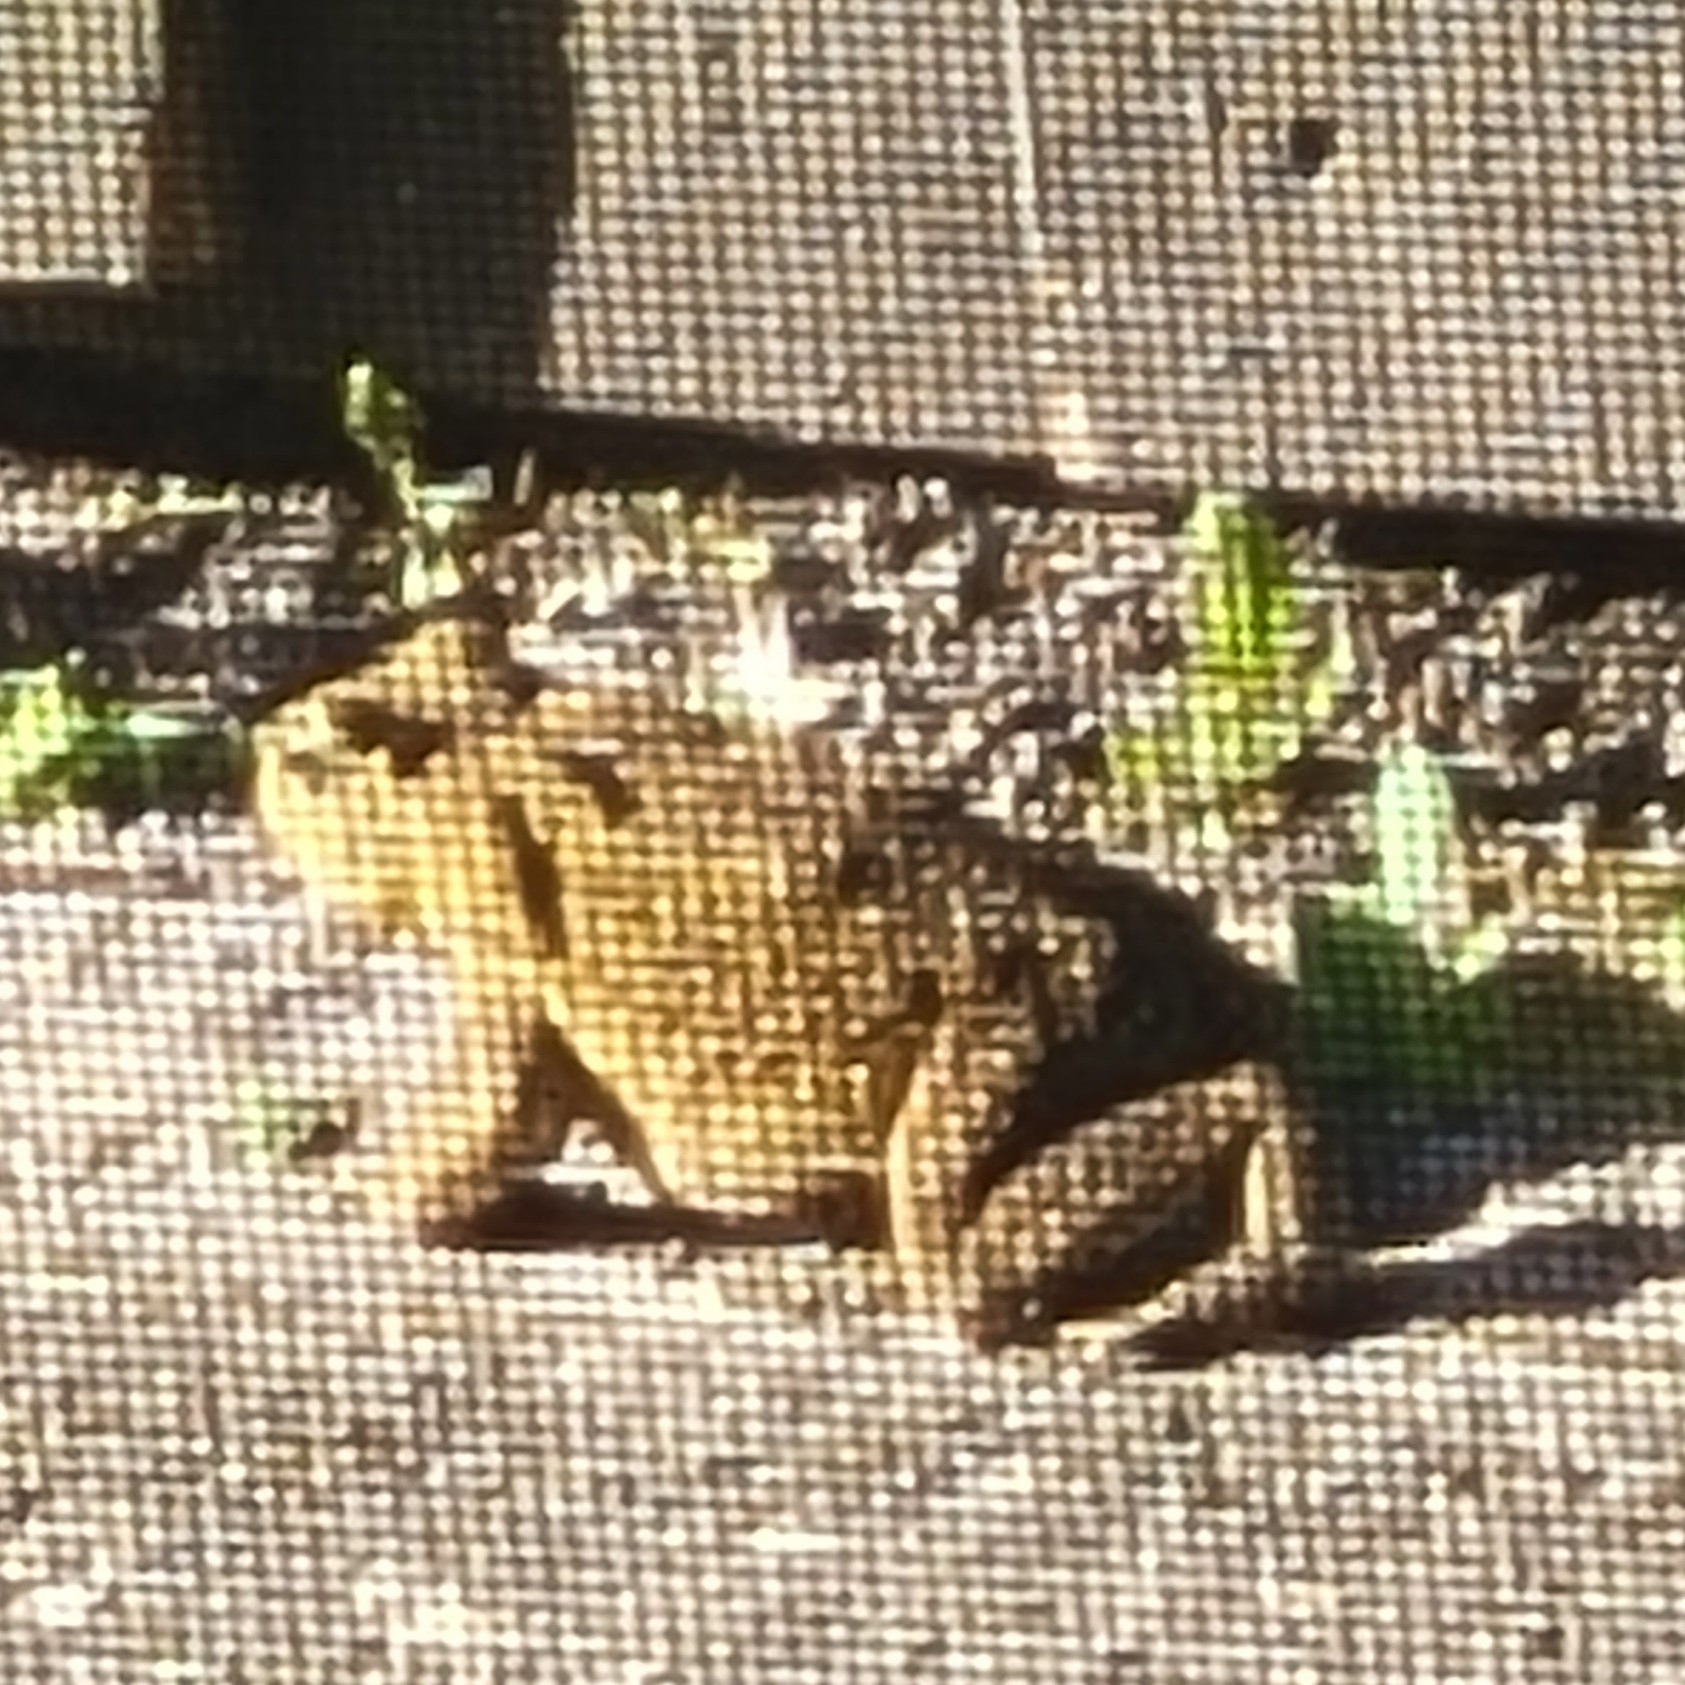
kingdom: Animalia
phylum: Chordata
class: Amphibia
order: Anura
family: Bufonidae
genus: Rhinella
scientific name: Rhinella marina
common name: Cane toad
